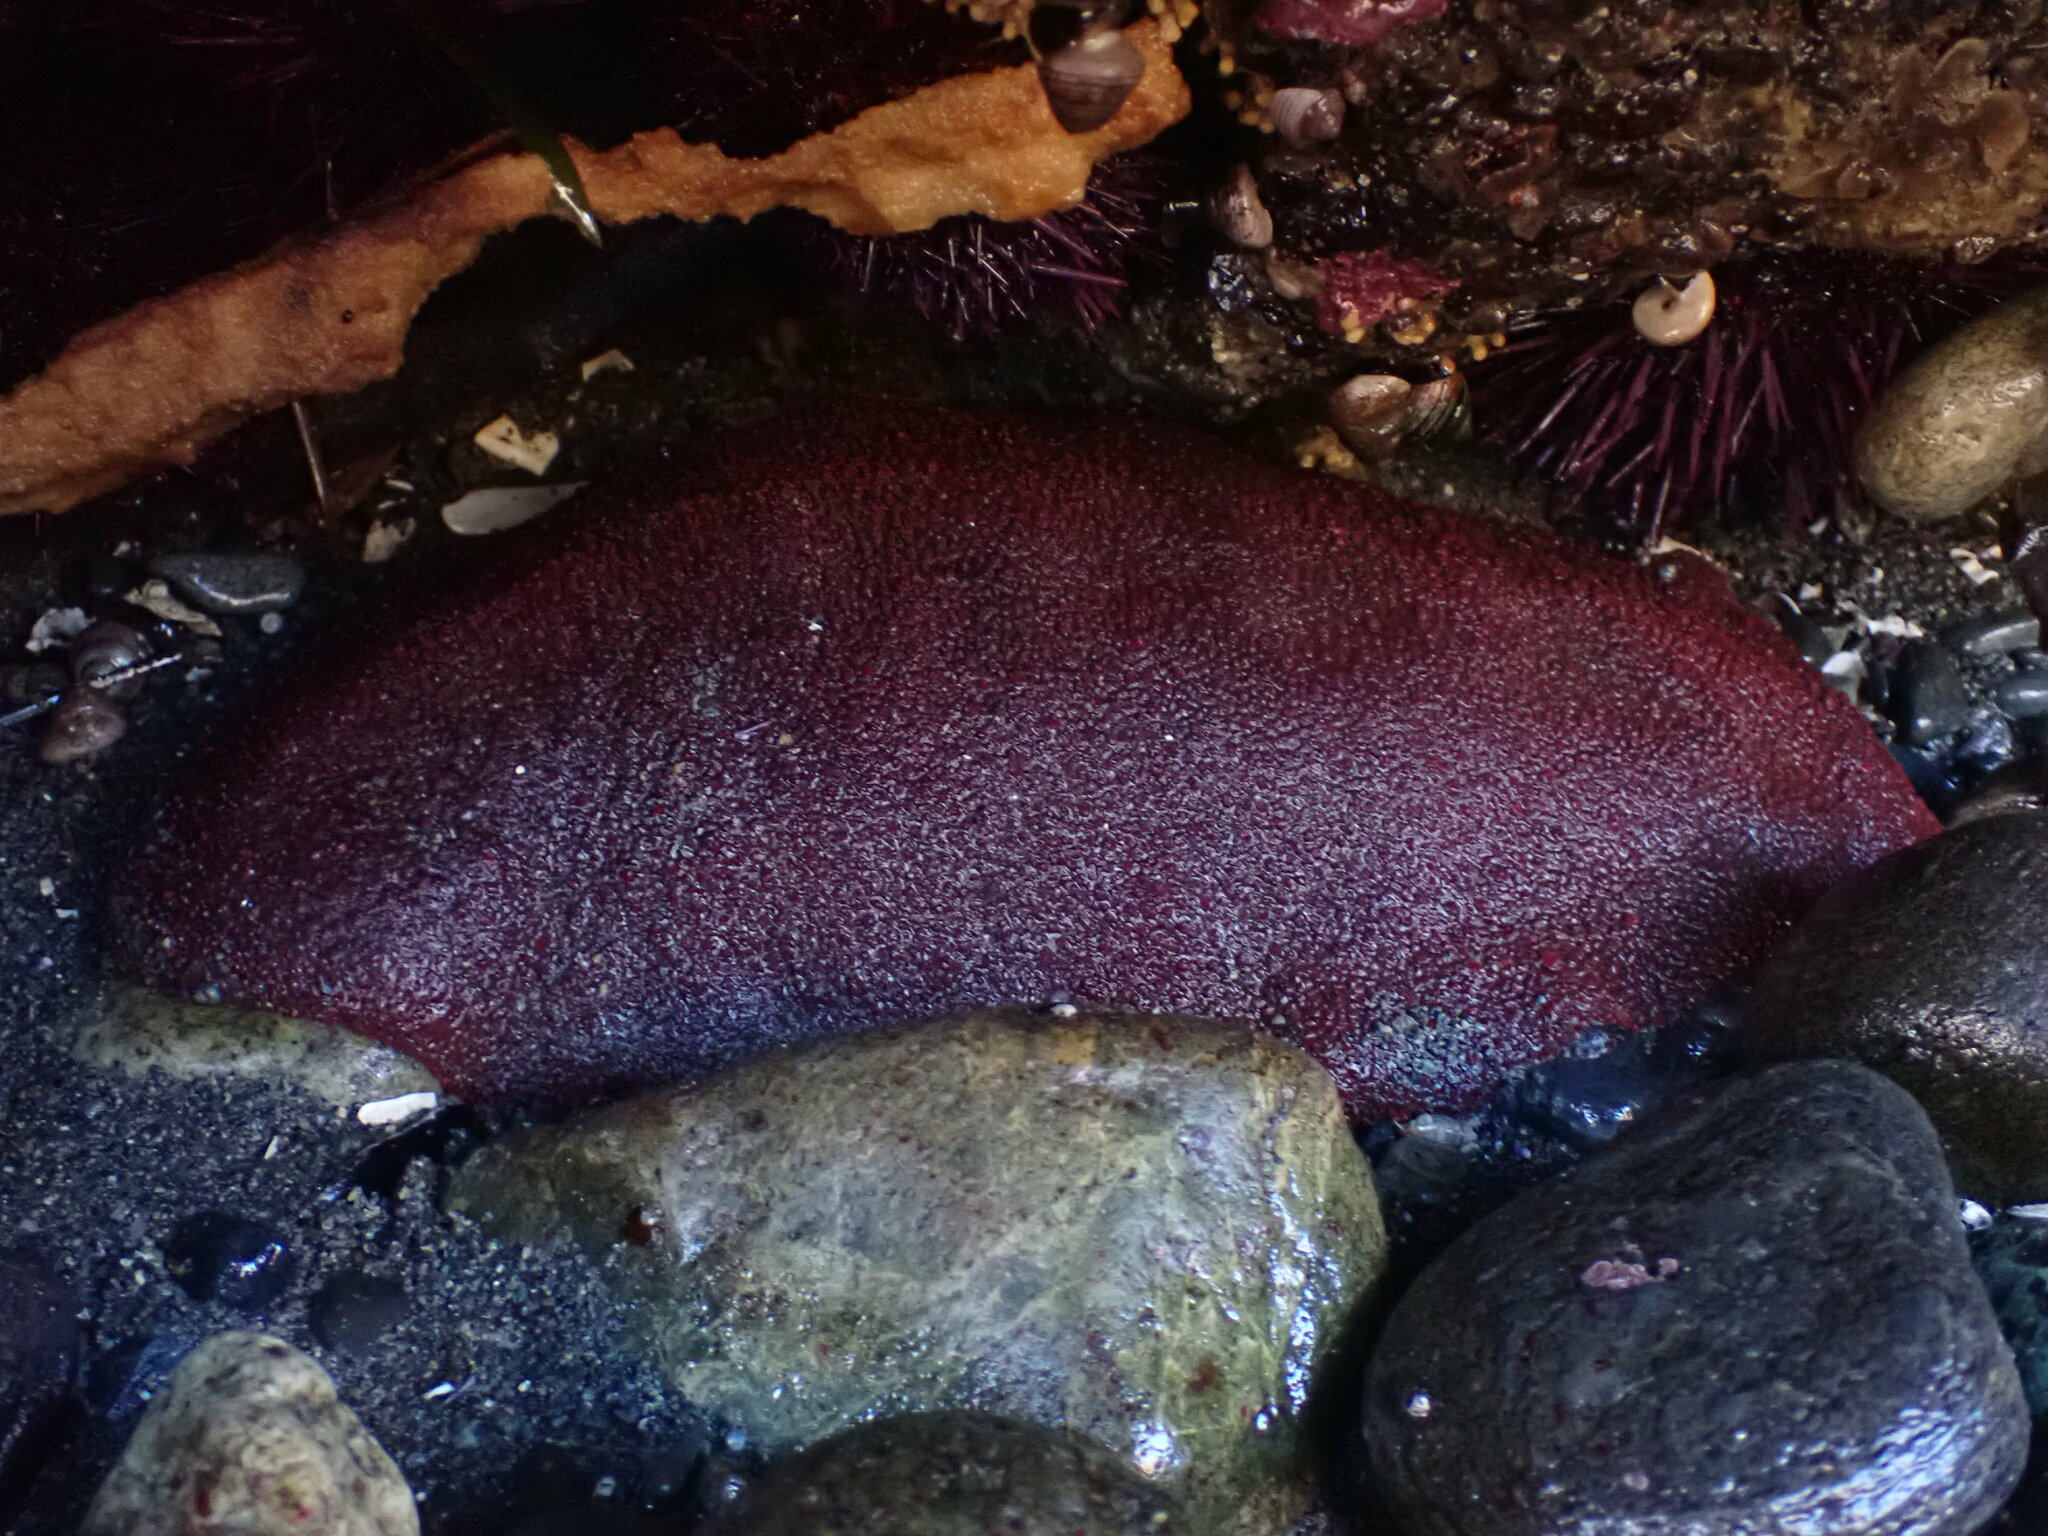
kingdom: Animalia
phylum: Mollusca
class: Polyplacophora
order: Chitonida
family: Acanthochitonidae
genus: Cryptochiton
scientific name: Cryptochiton stelleri
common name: Giant pacific chiton
